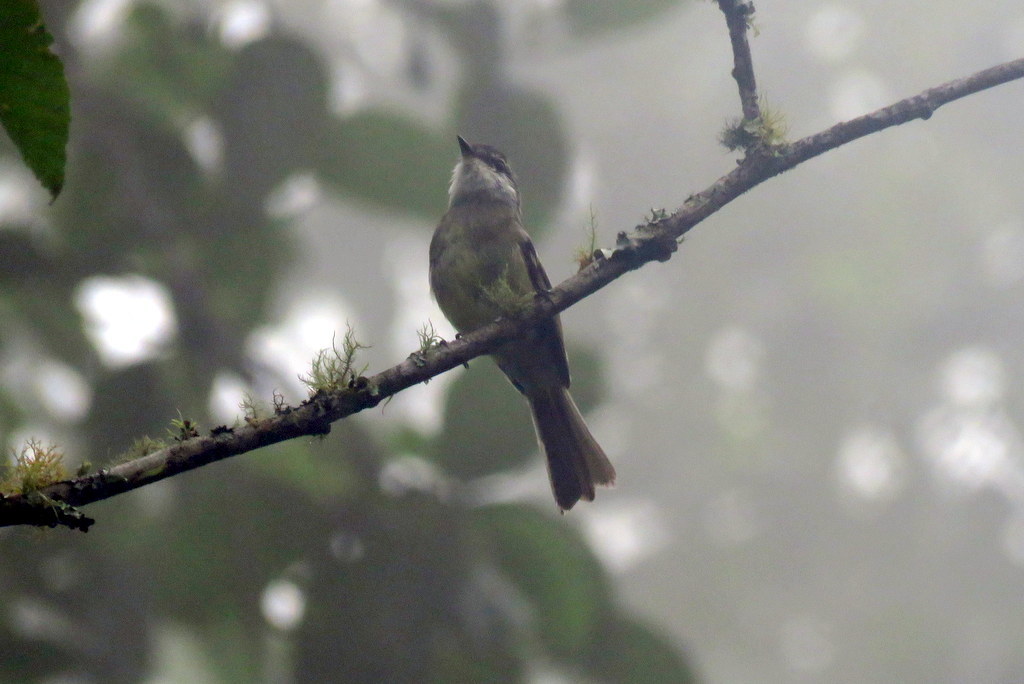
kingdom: Animalia
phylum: Chordata
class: Aves
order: Passeriformes
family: Tyrannidae
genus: Mecocerculus
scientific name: Mecocerculus leucophrys
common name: White-throated tyrannulet
